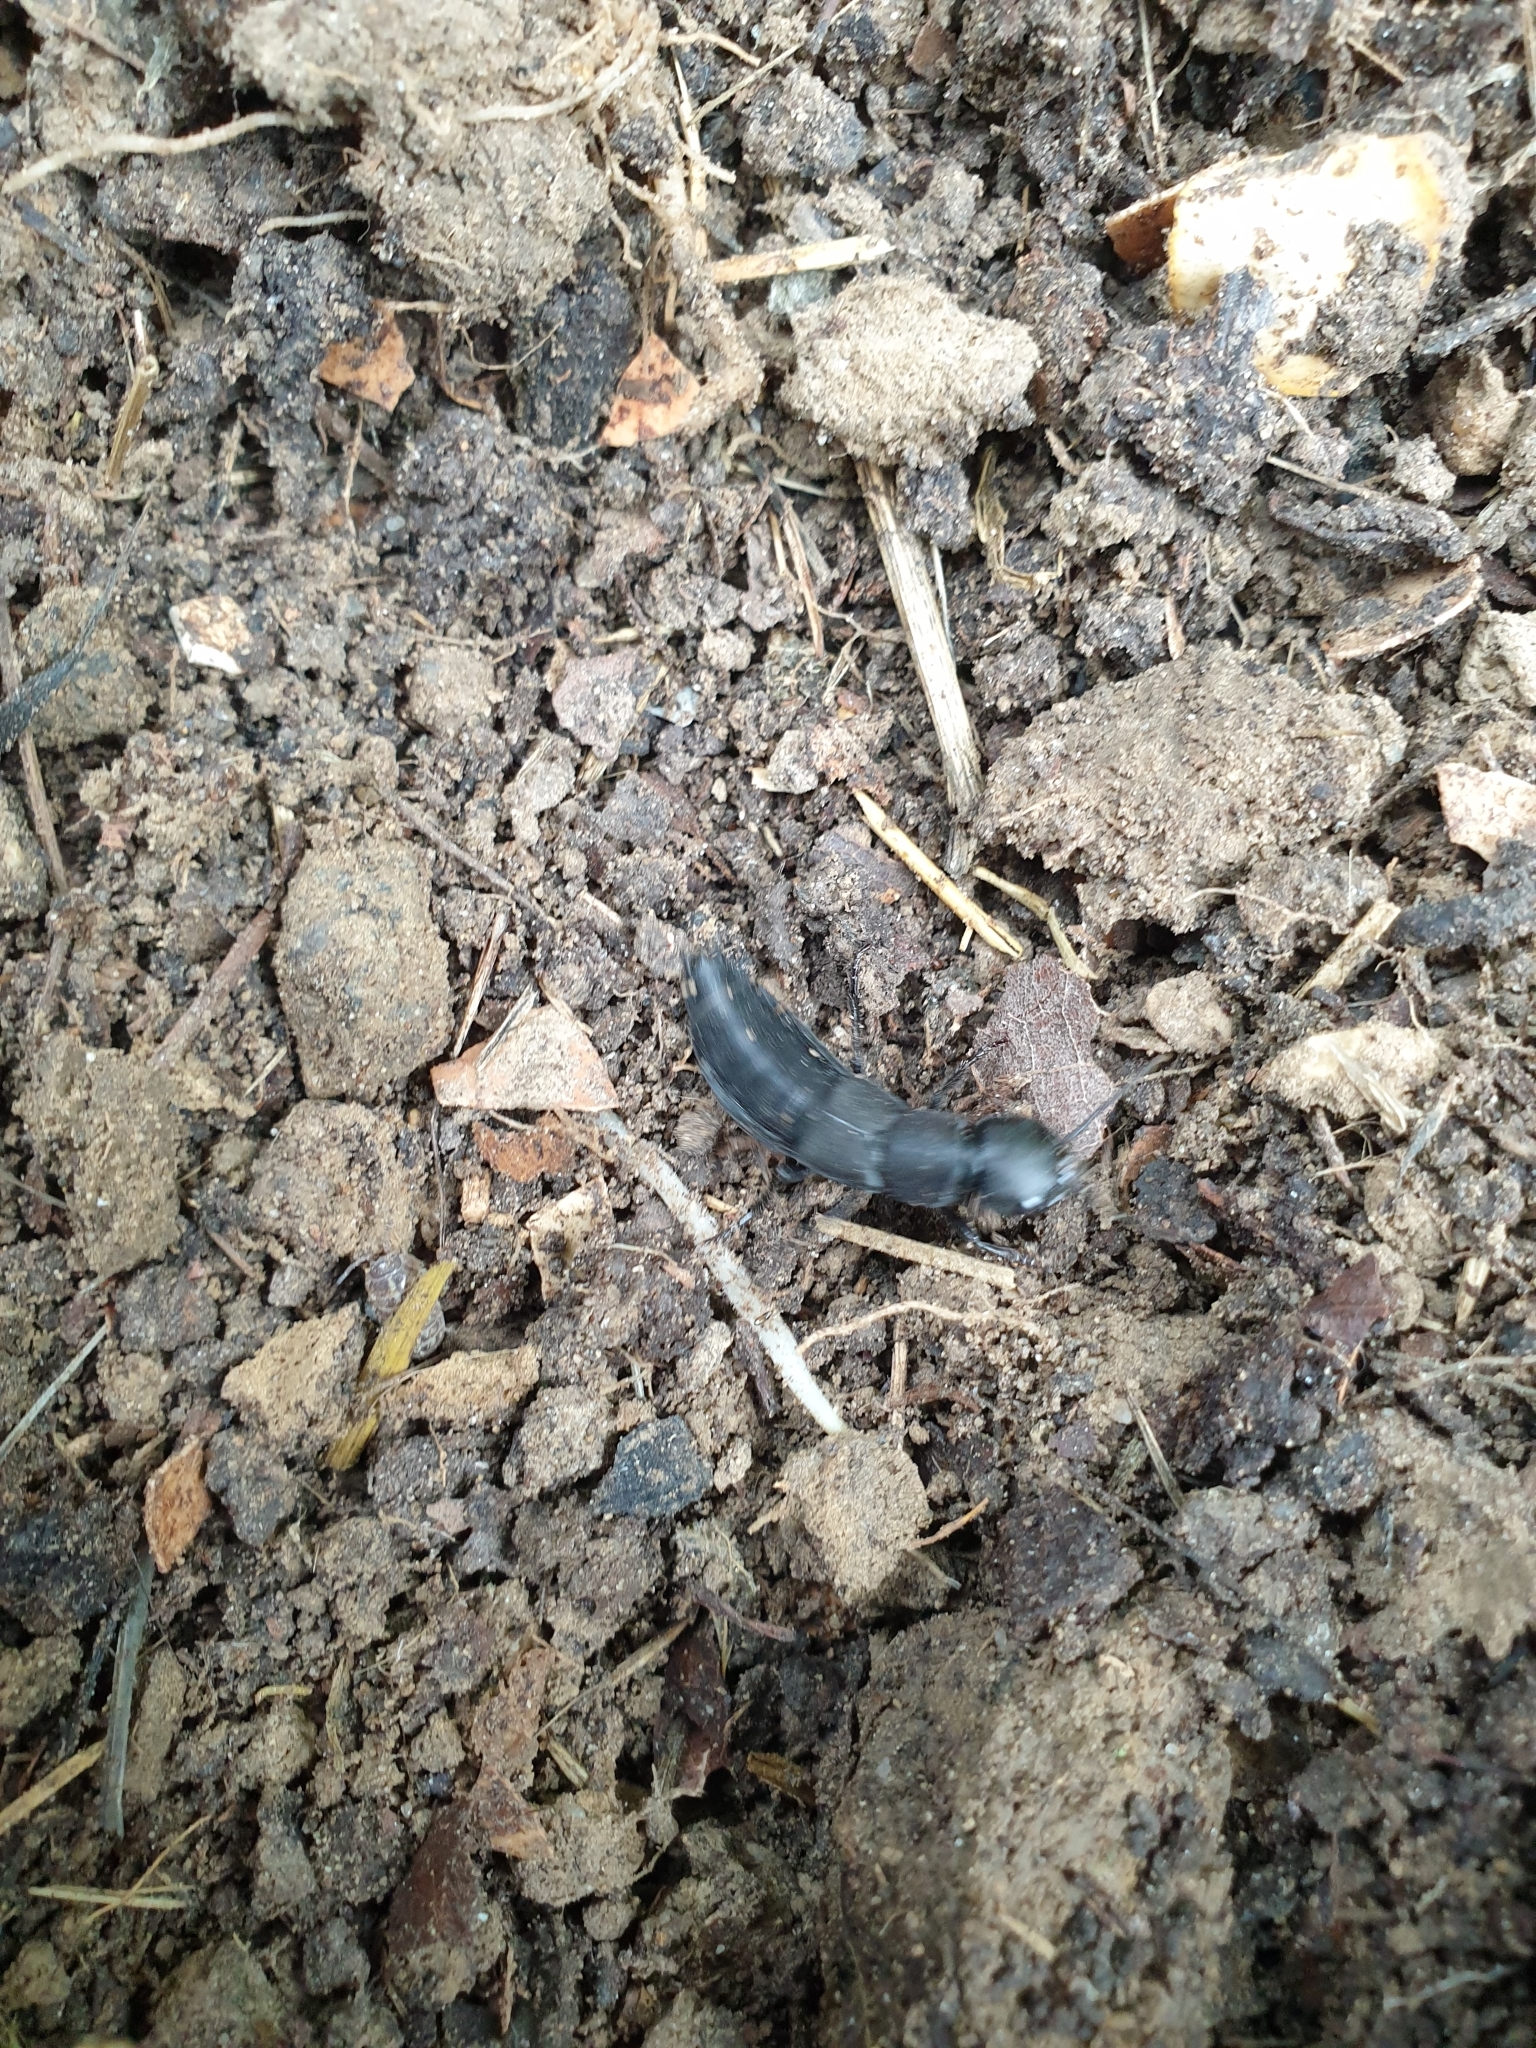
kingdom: Animalia
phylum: Arthropoda
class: Insecta
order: Coleoptera
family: Staphylinidae
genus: Ocypus
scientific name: Ocypus olens
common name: Devil's coach-horse
